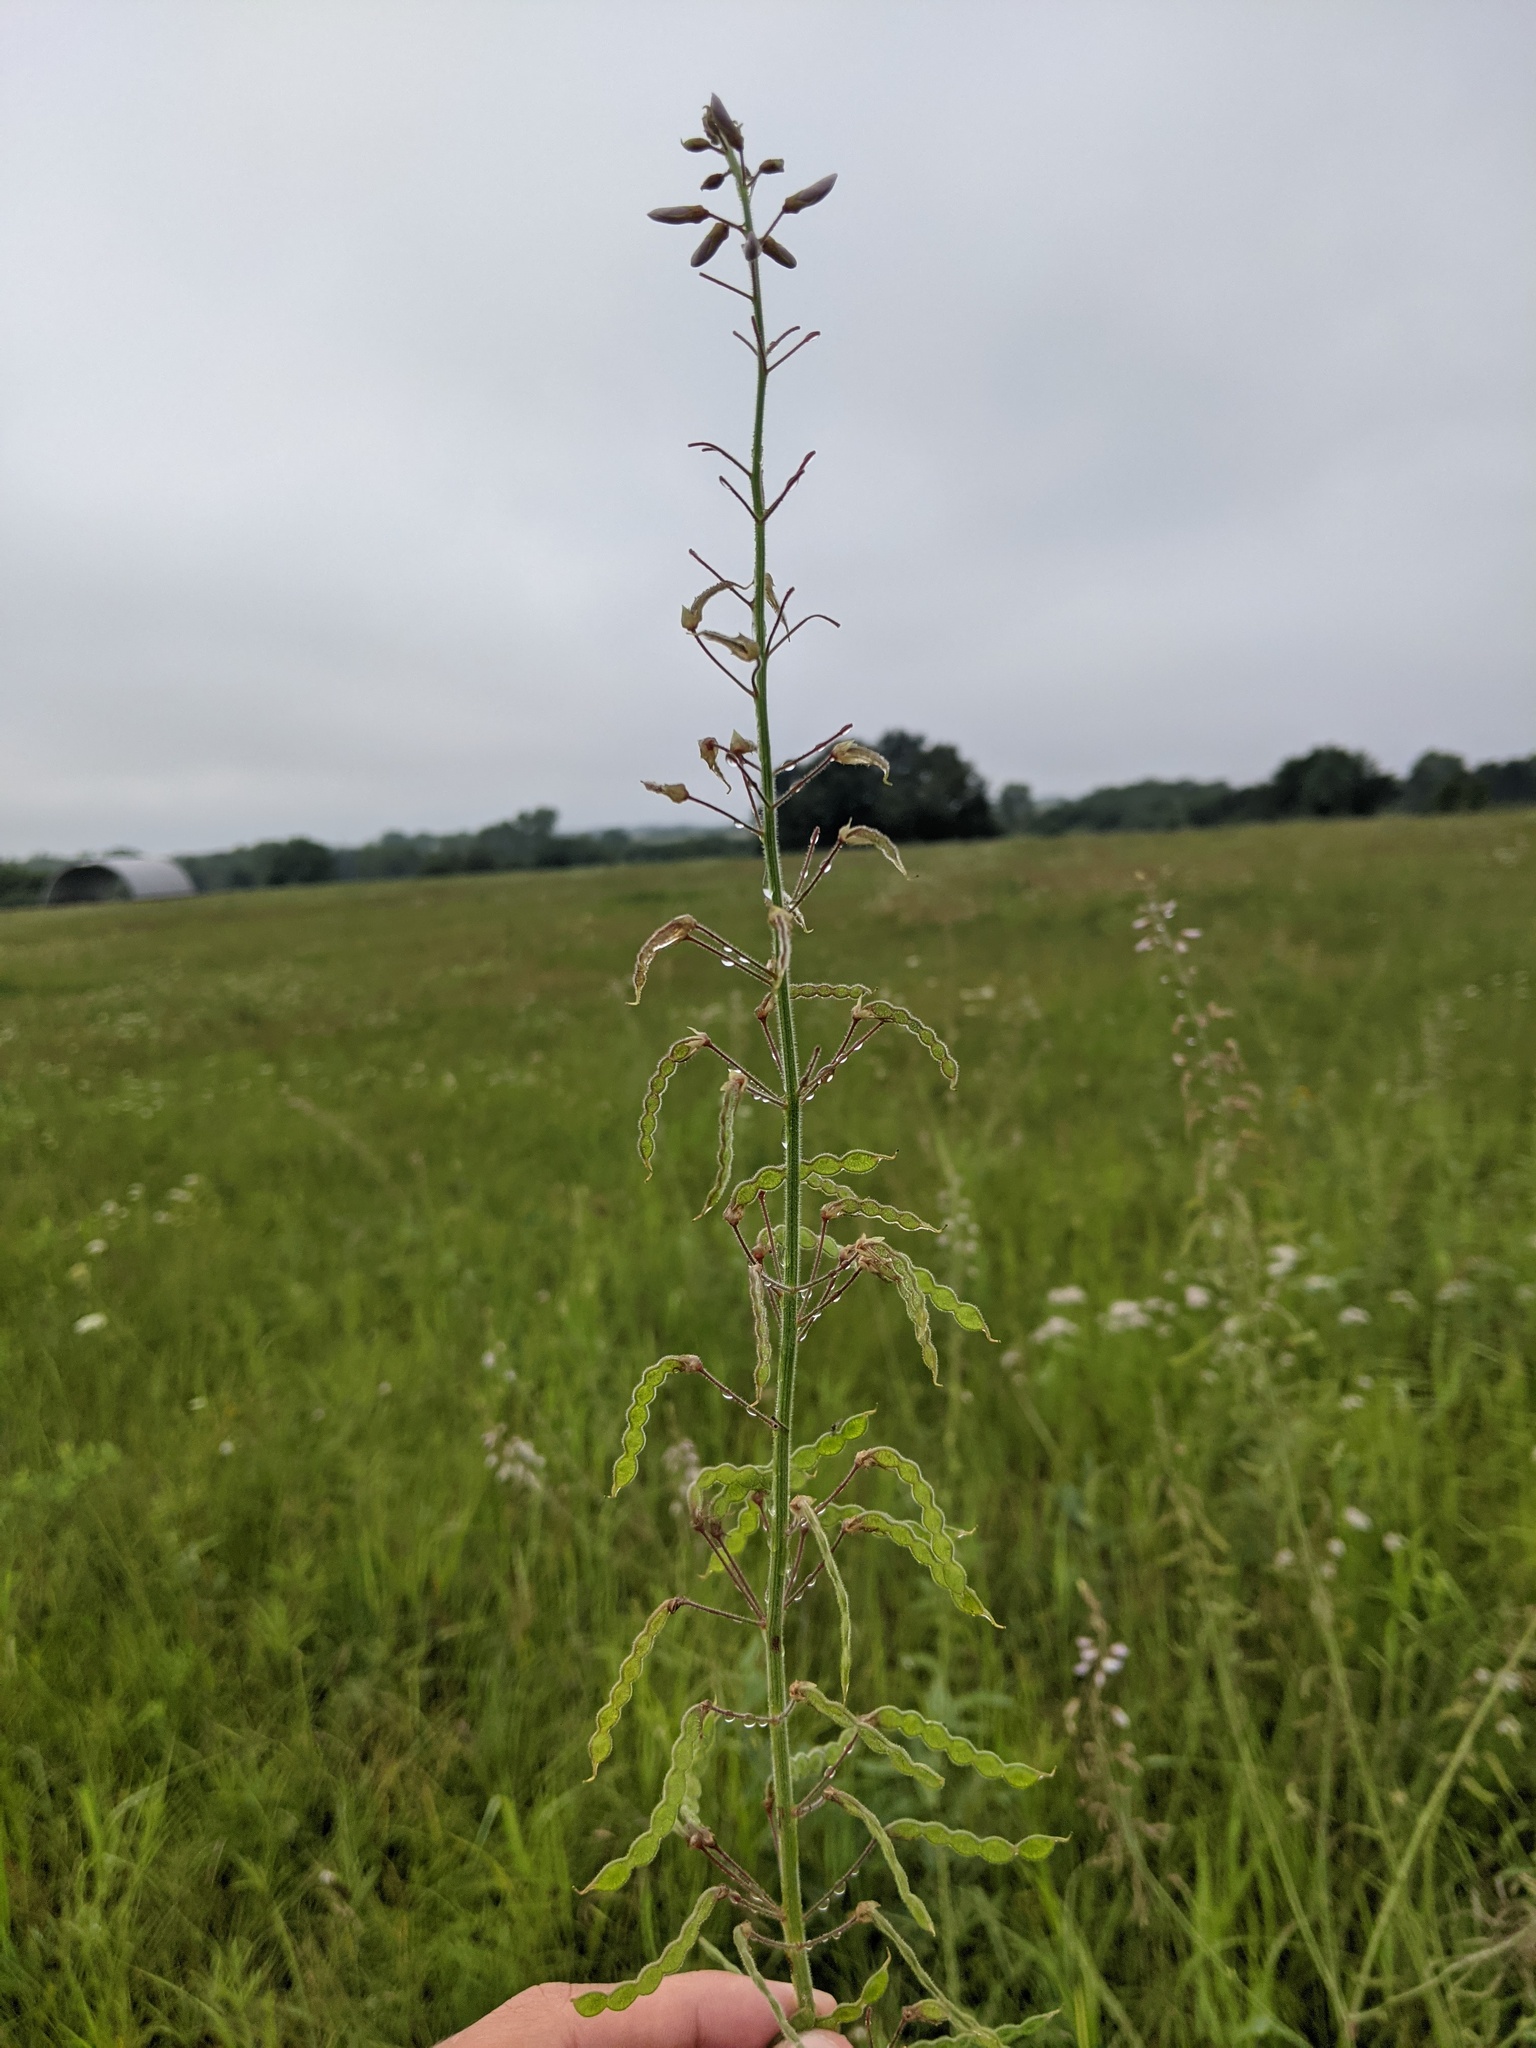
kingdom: Plantae
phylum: Tracheophyta
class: Magnoliopsida
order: Fabales
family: Fabaceae
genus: Desmodium
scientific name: Desmodium illinoense
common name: Illinois tick-clover
